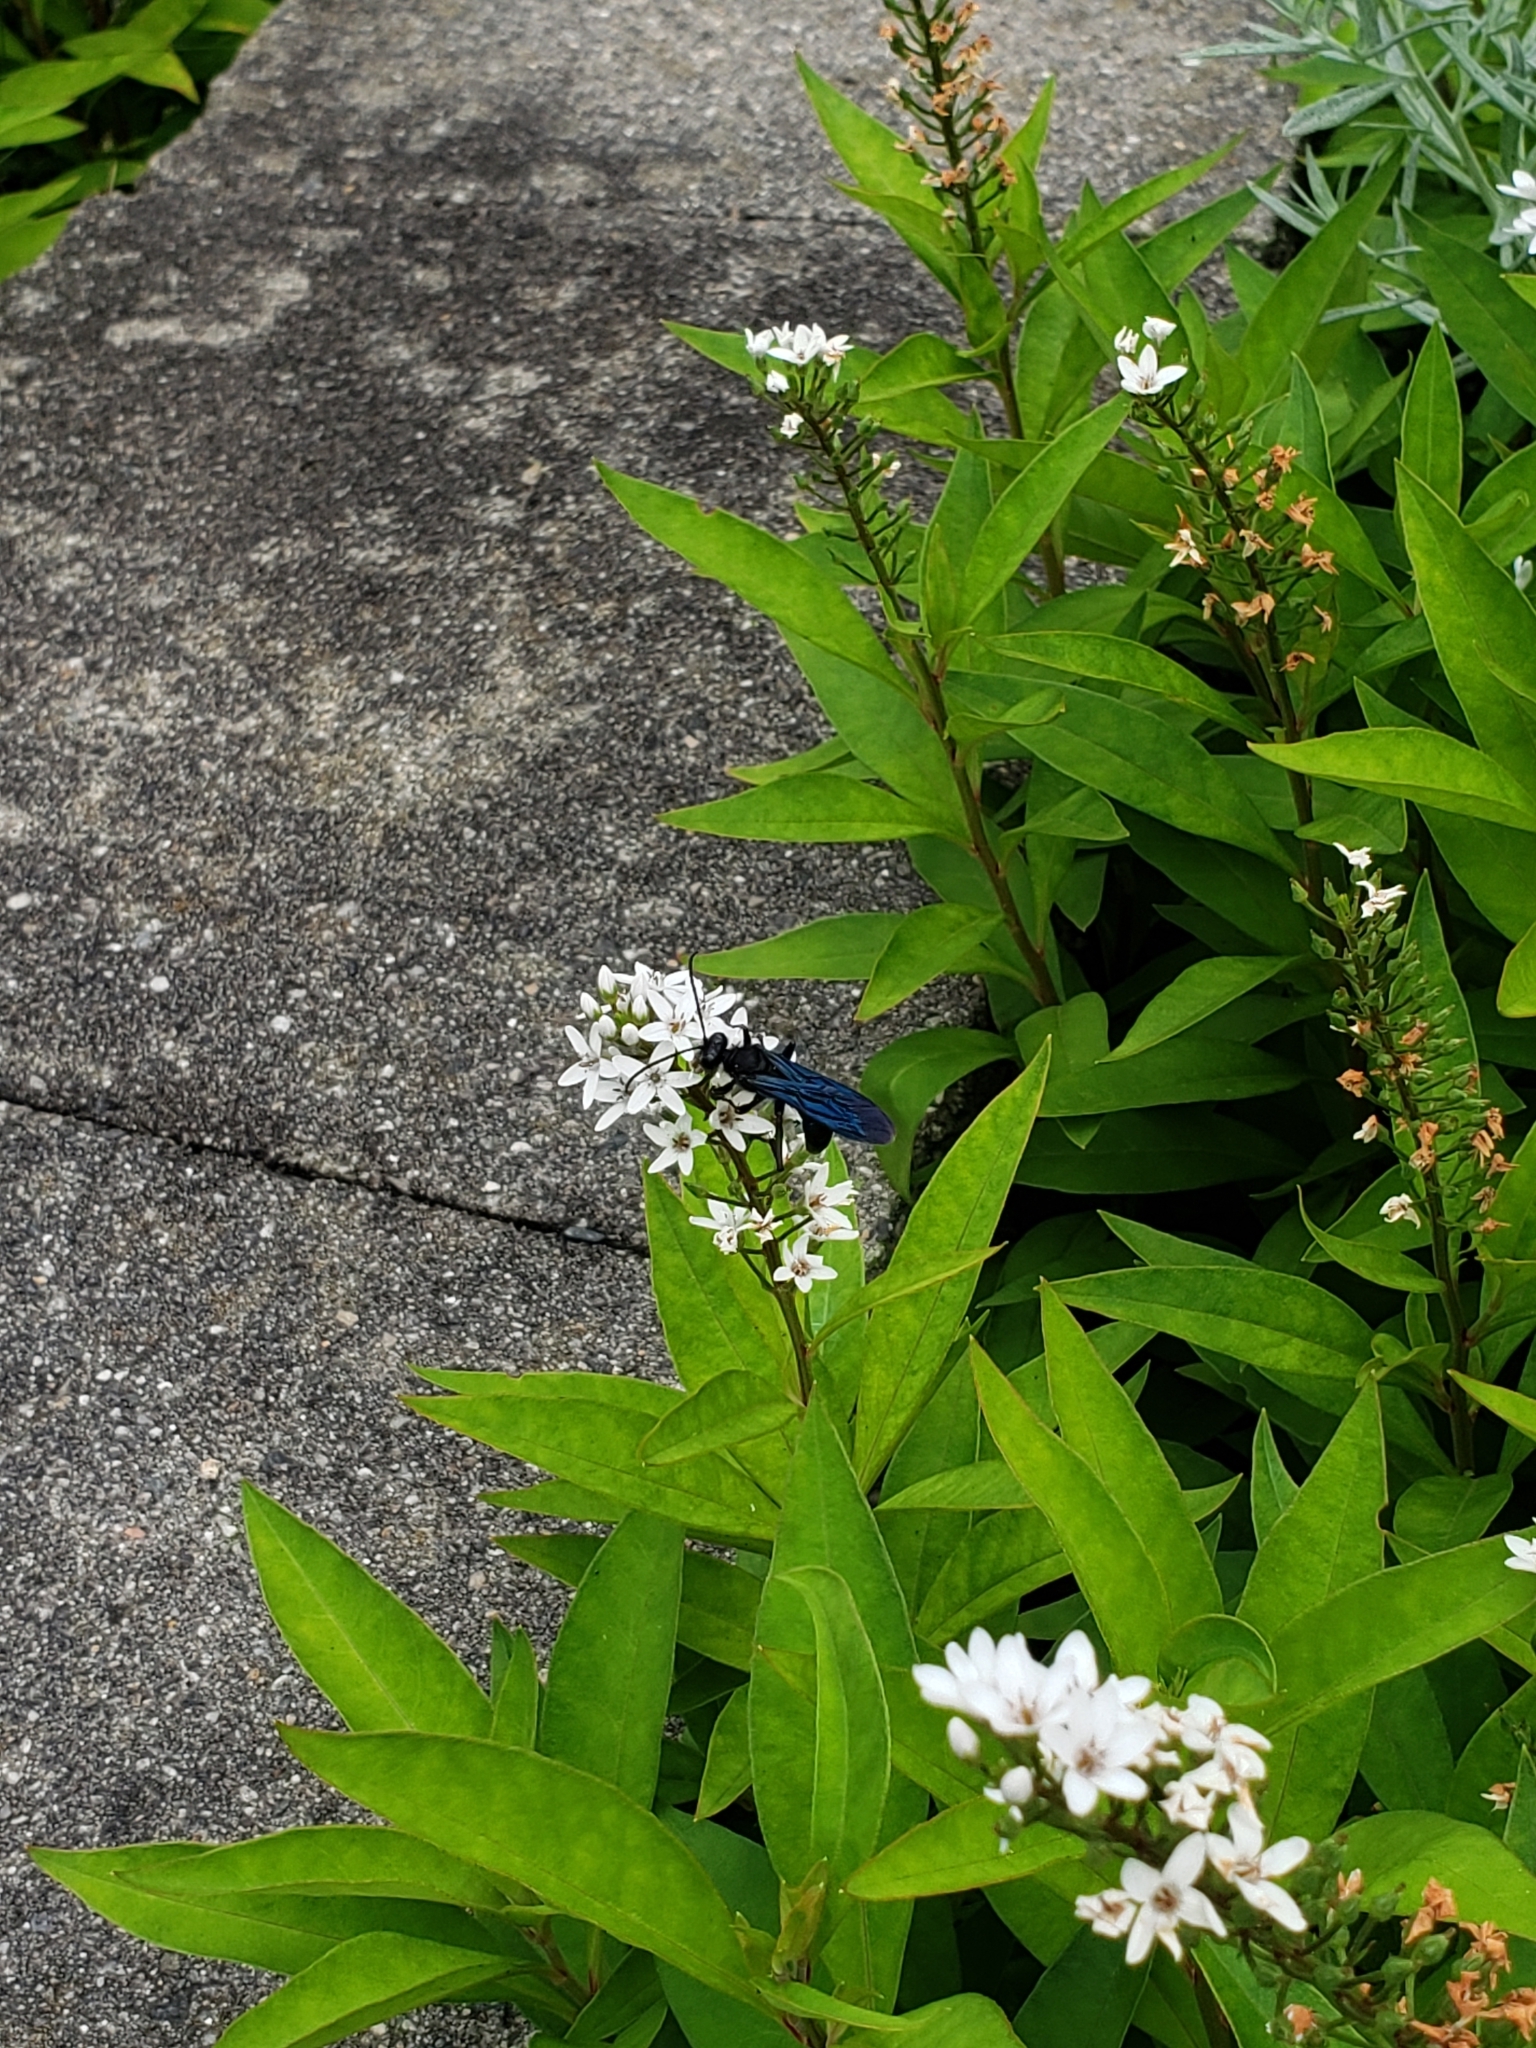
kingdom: Animalia
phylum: Arthropoda
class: Insecta
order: Hymenoptera
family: Sphecidae
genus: Sphex
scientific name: Sphex pensylvanicus
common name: Great black digger wasp
